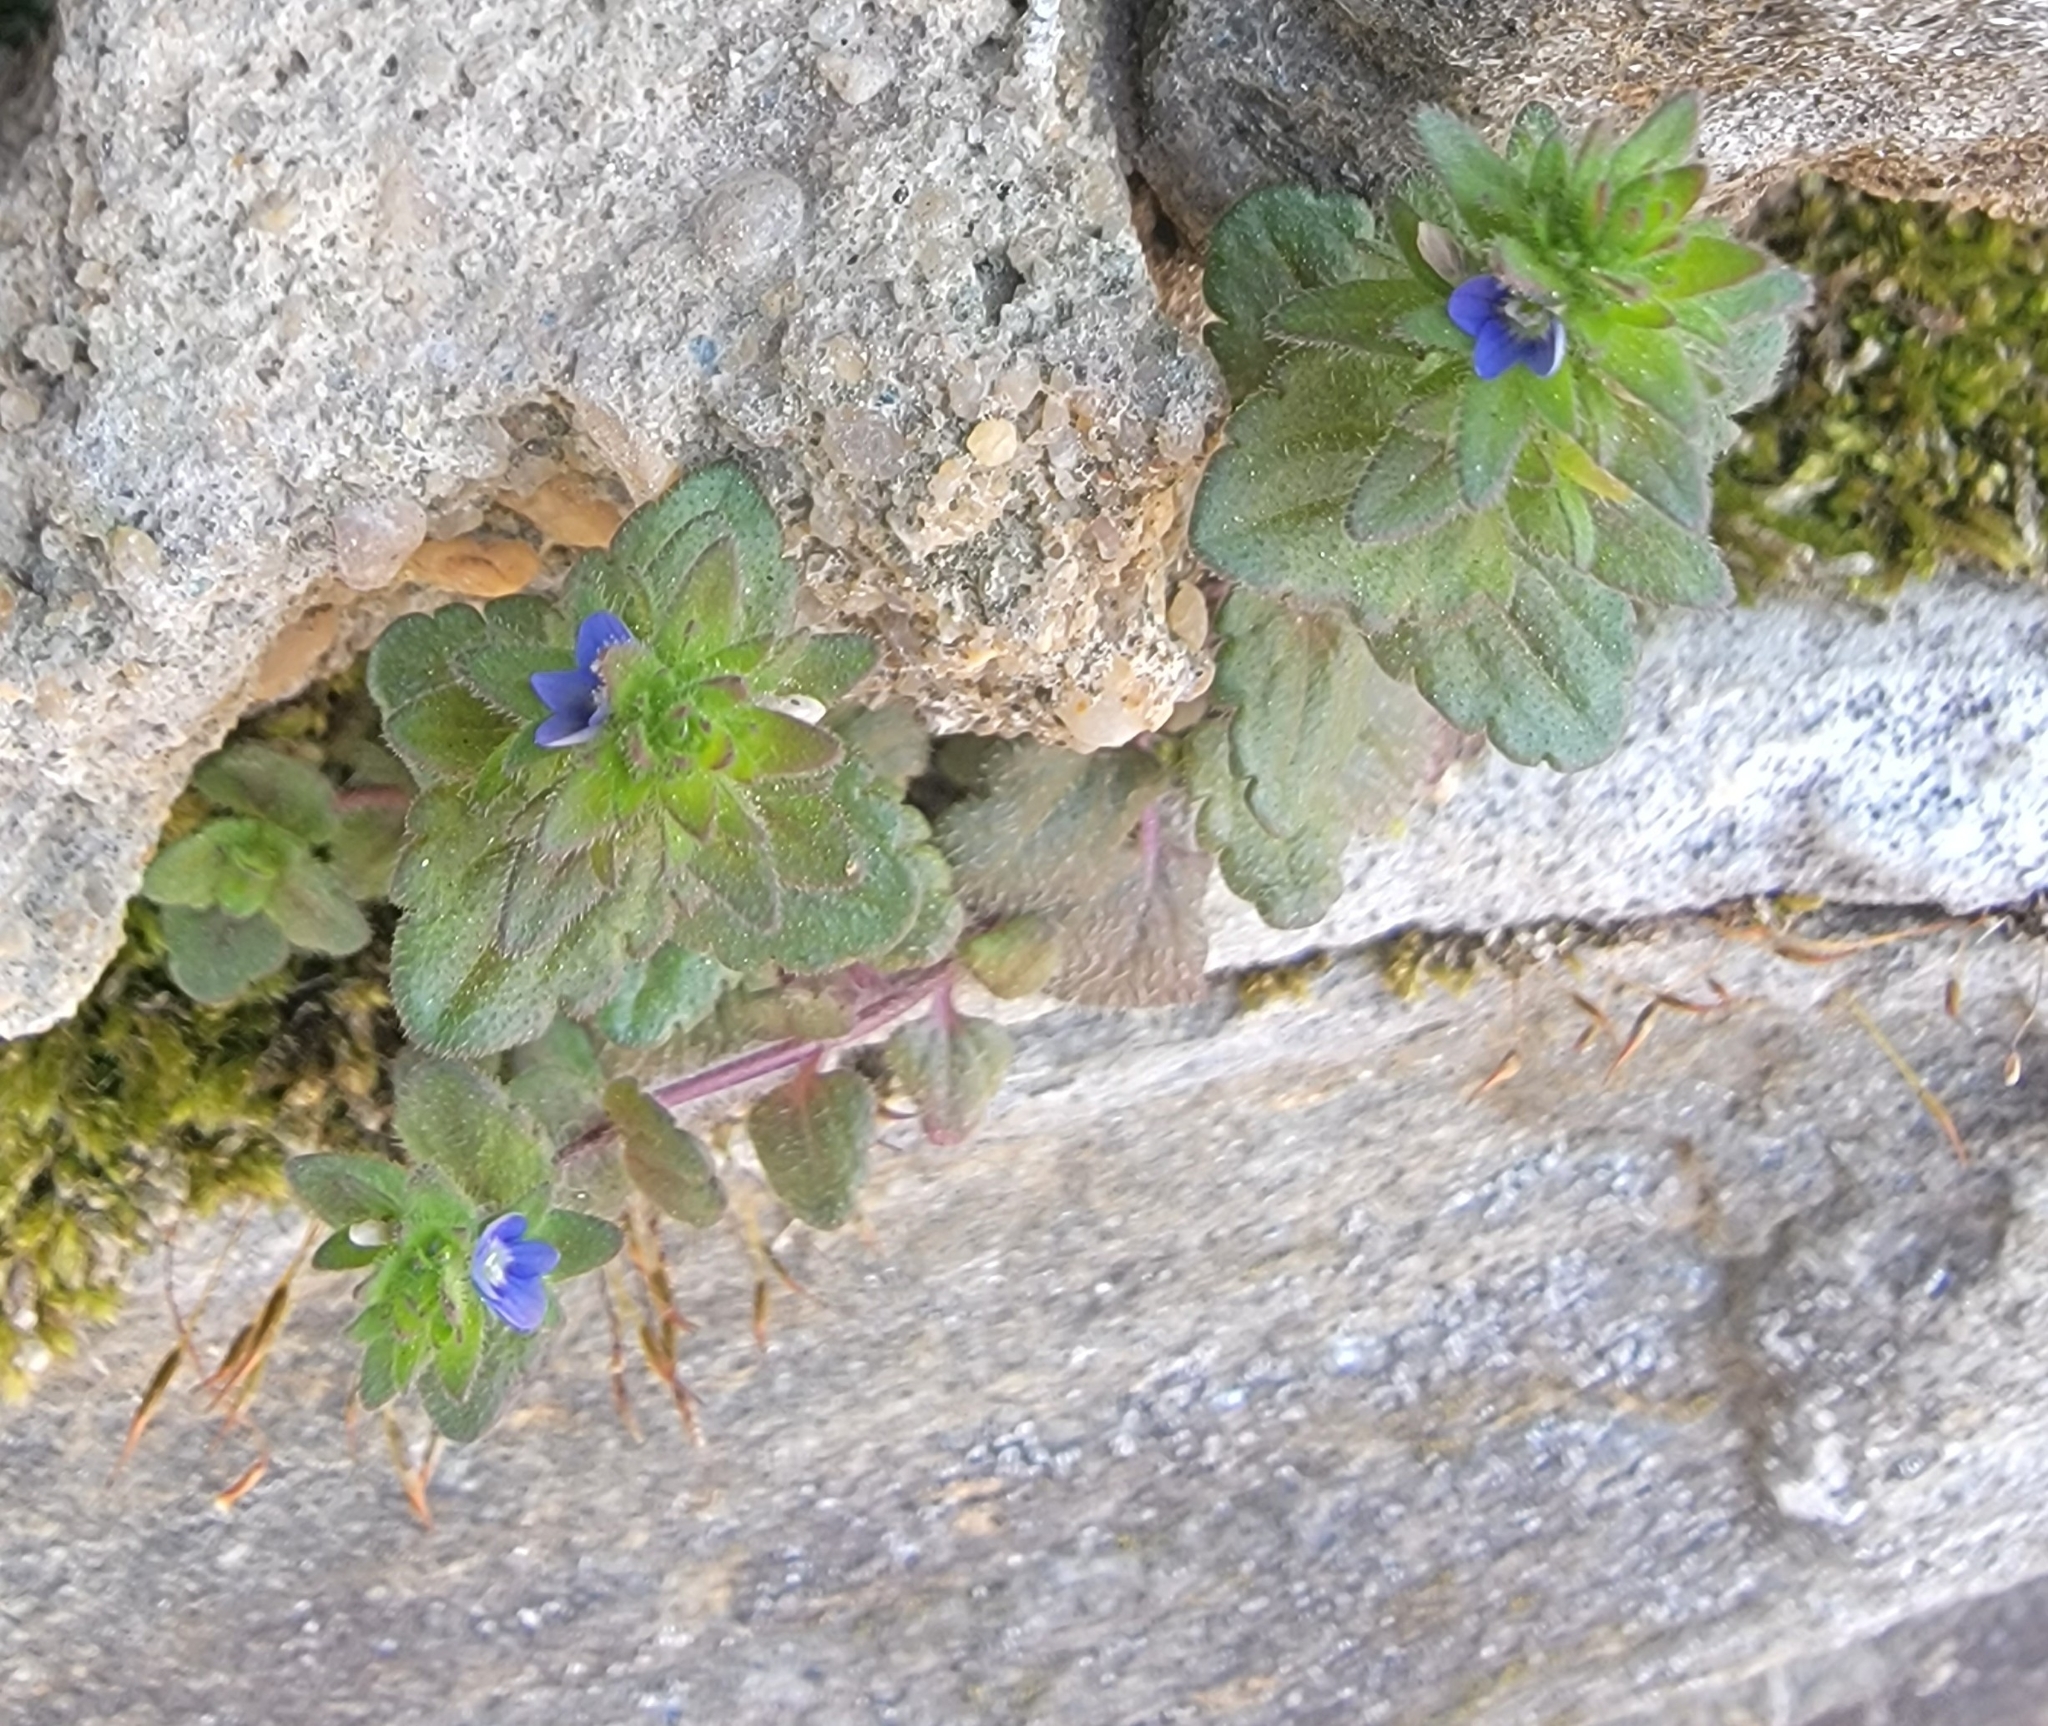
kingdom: Plantae
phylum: Tracheophyta
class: Magnoliopsida
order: Lamiales
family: Plantaginaceae
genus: Veronica
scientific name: Veronica arvensis
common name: Corn speedwell
